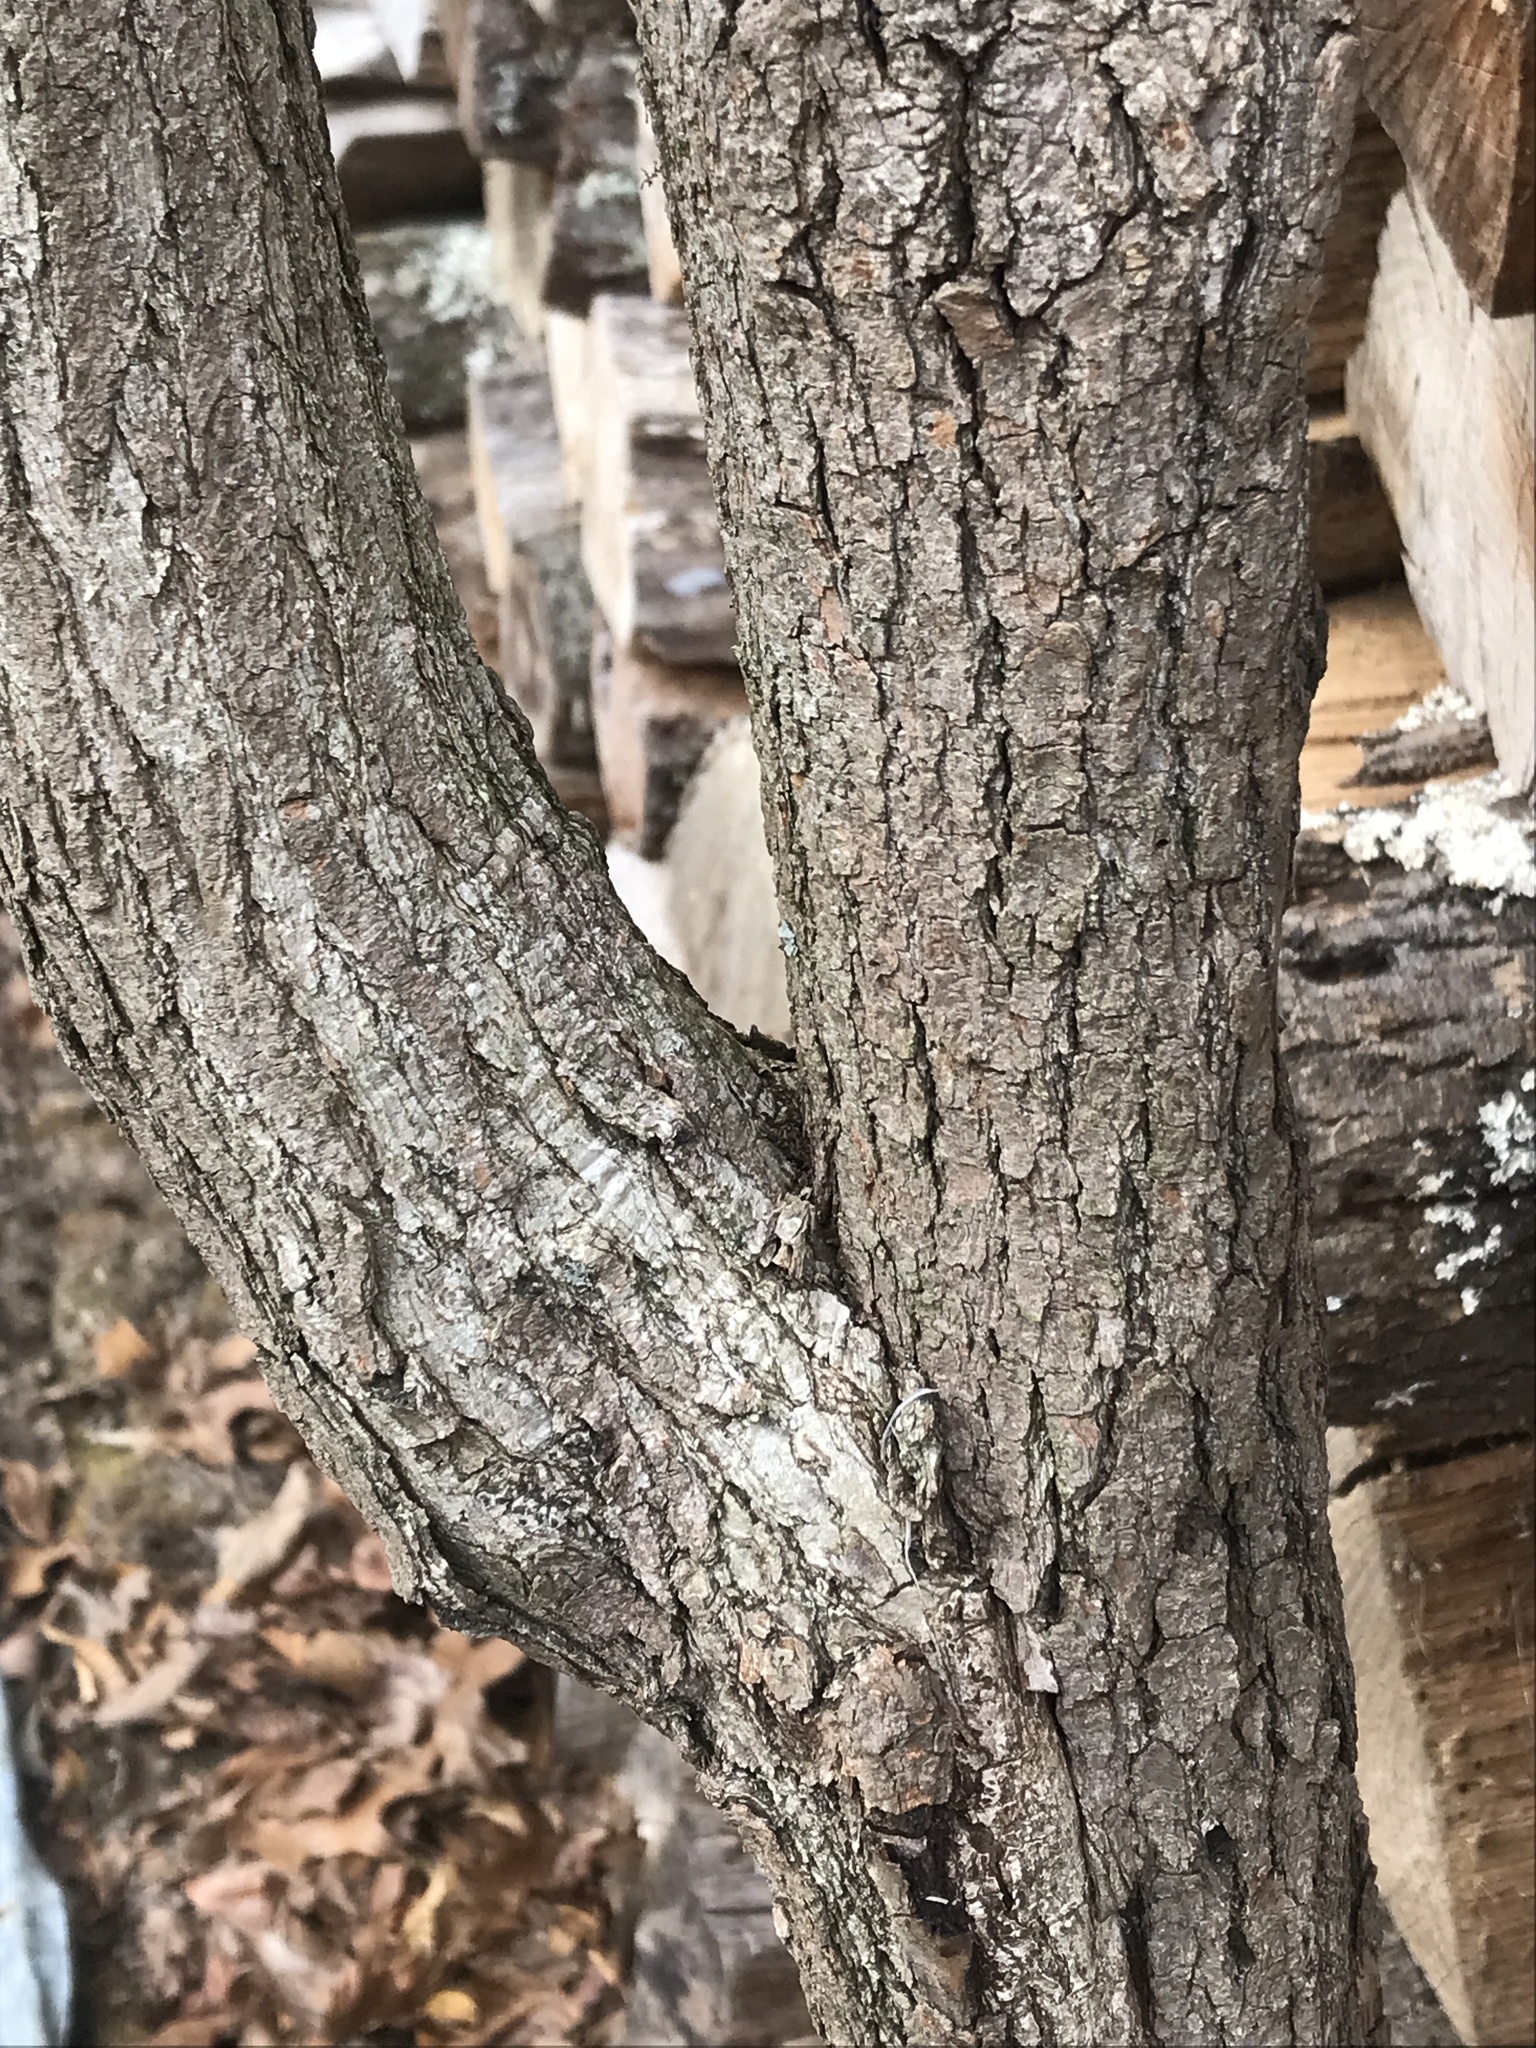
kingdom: Plantae
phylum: Tracheophyta
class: Magnoliopsida
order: Laurales
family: Lauraceae
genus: Sassafras
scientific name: Sassafras albidum
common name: Sassafras
